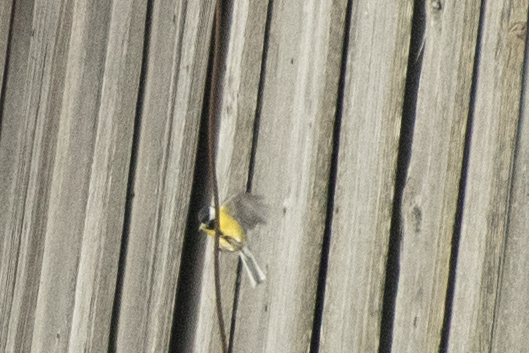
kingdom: Animalia
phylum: Chordata
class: Aves
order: Passeriformes
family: Paridae
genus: Parus
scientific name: Parus major
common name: Great tit
